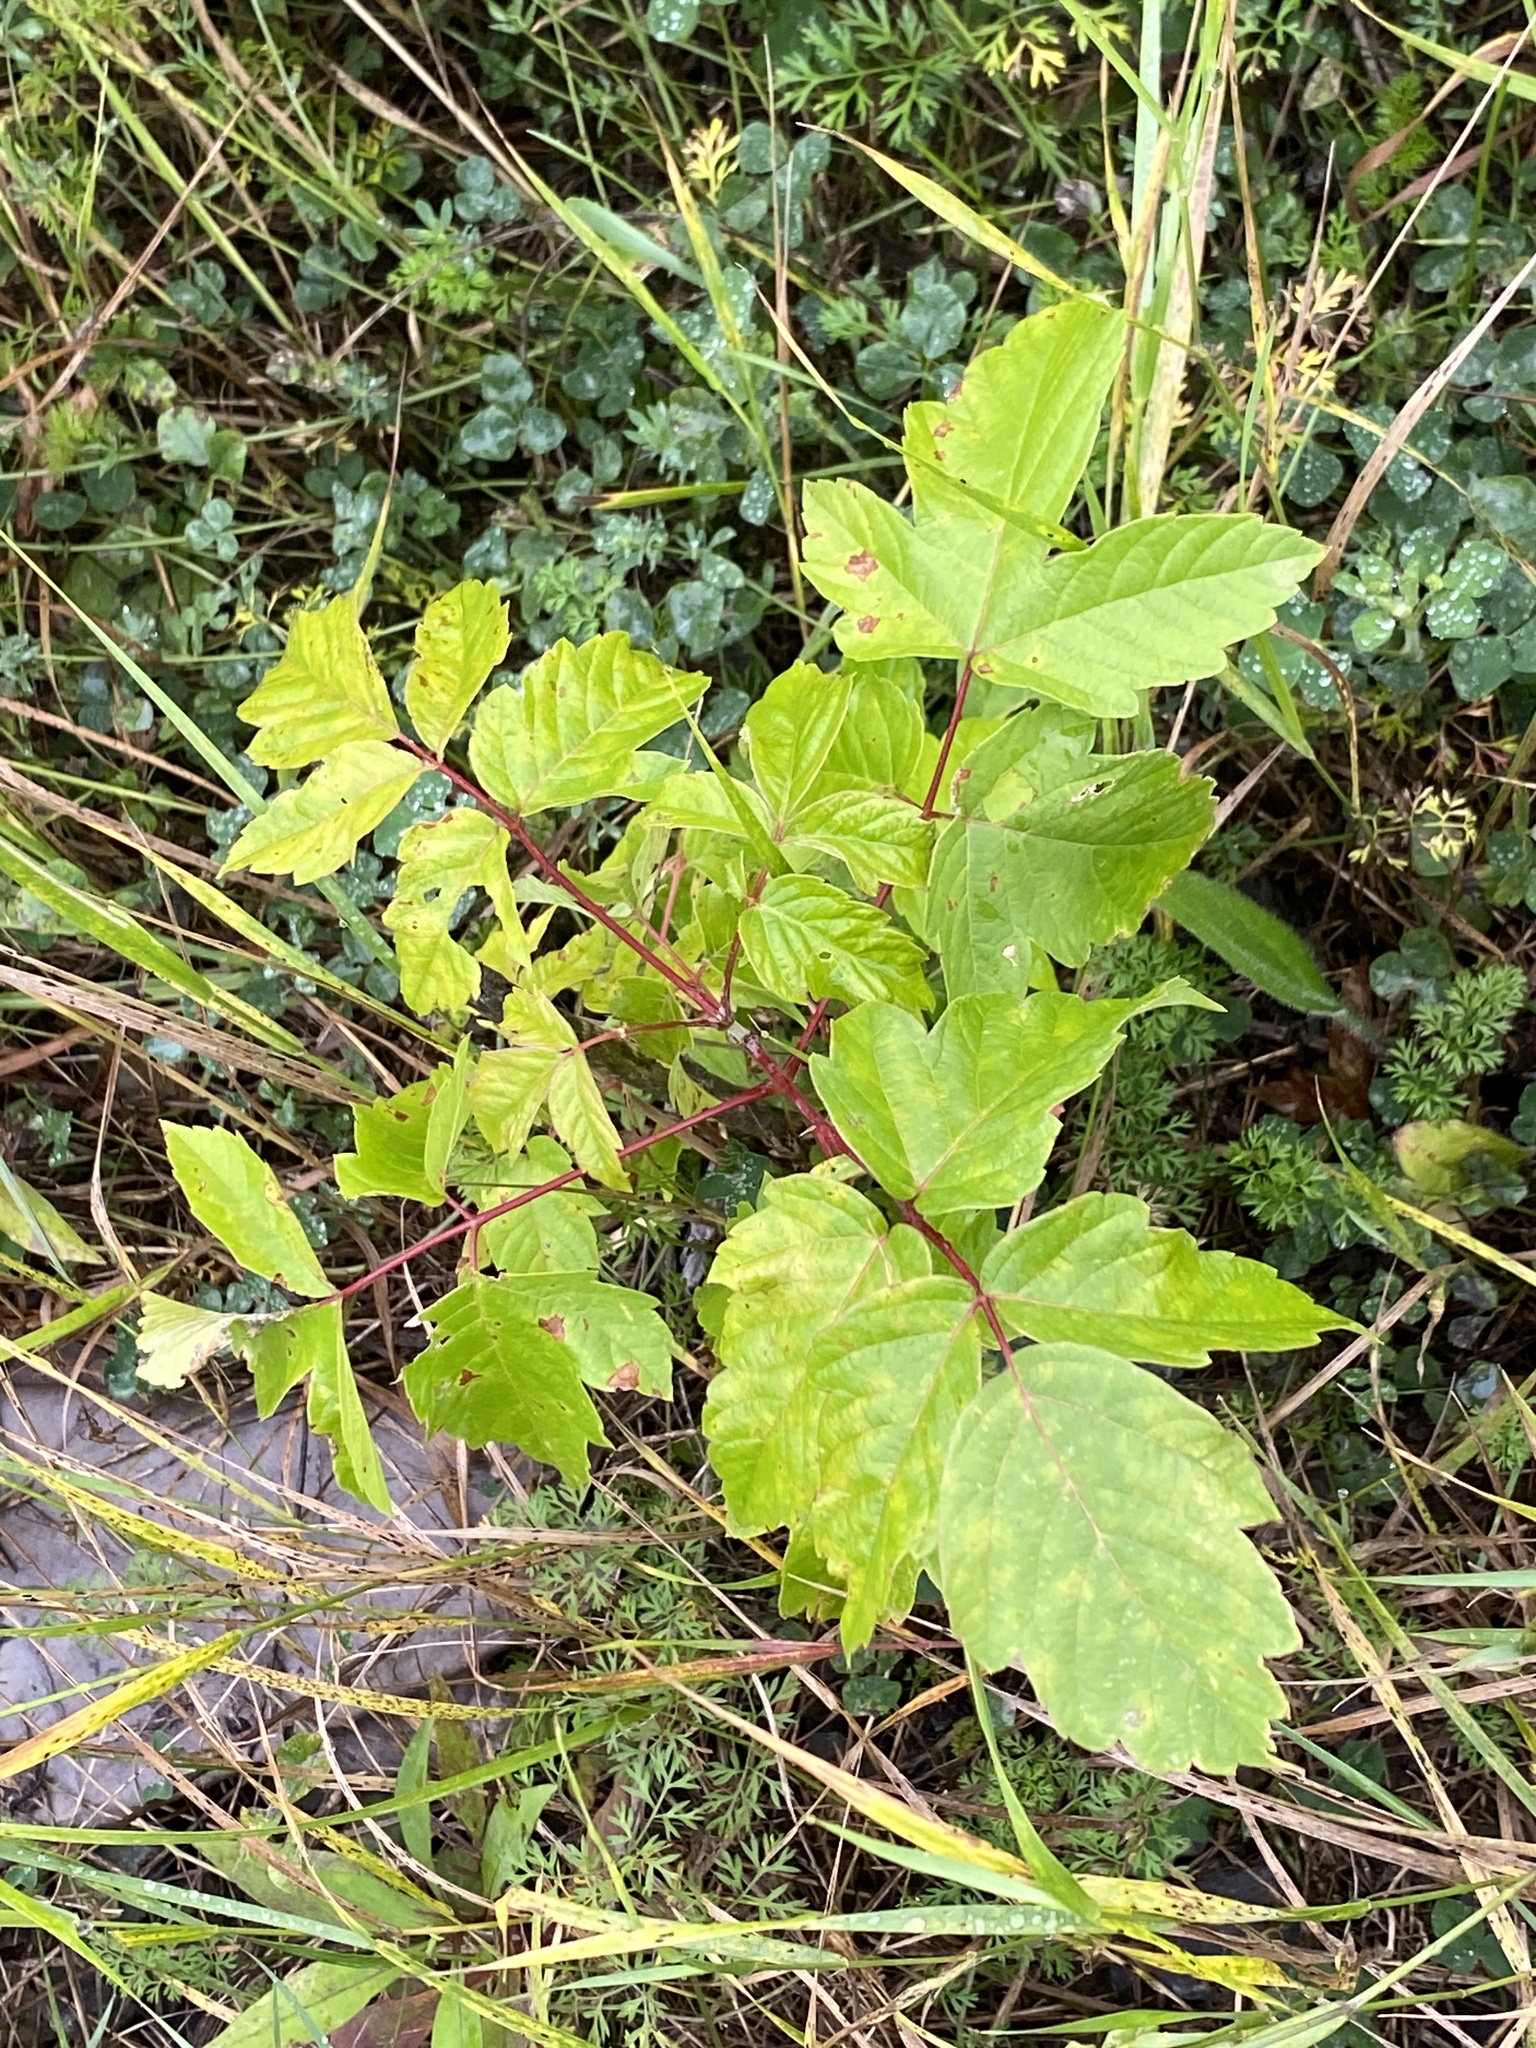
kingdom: Plantae
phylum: Tracheophyta
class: Magnoliopsida
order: Sapindales
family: Sapindaceae
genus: Acer
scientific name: Acer negundo
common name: Ashleaf maple
